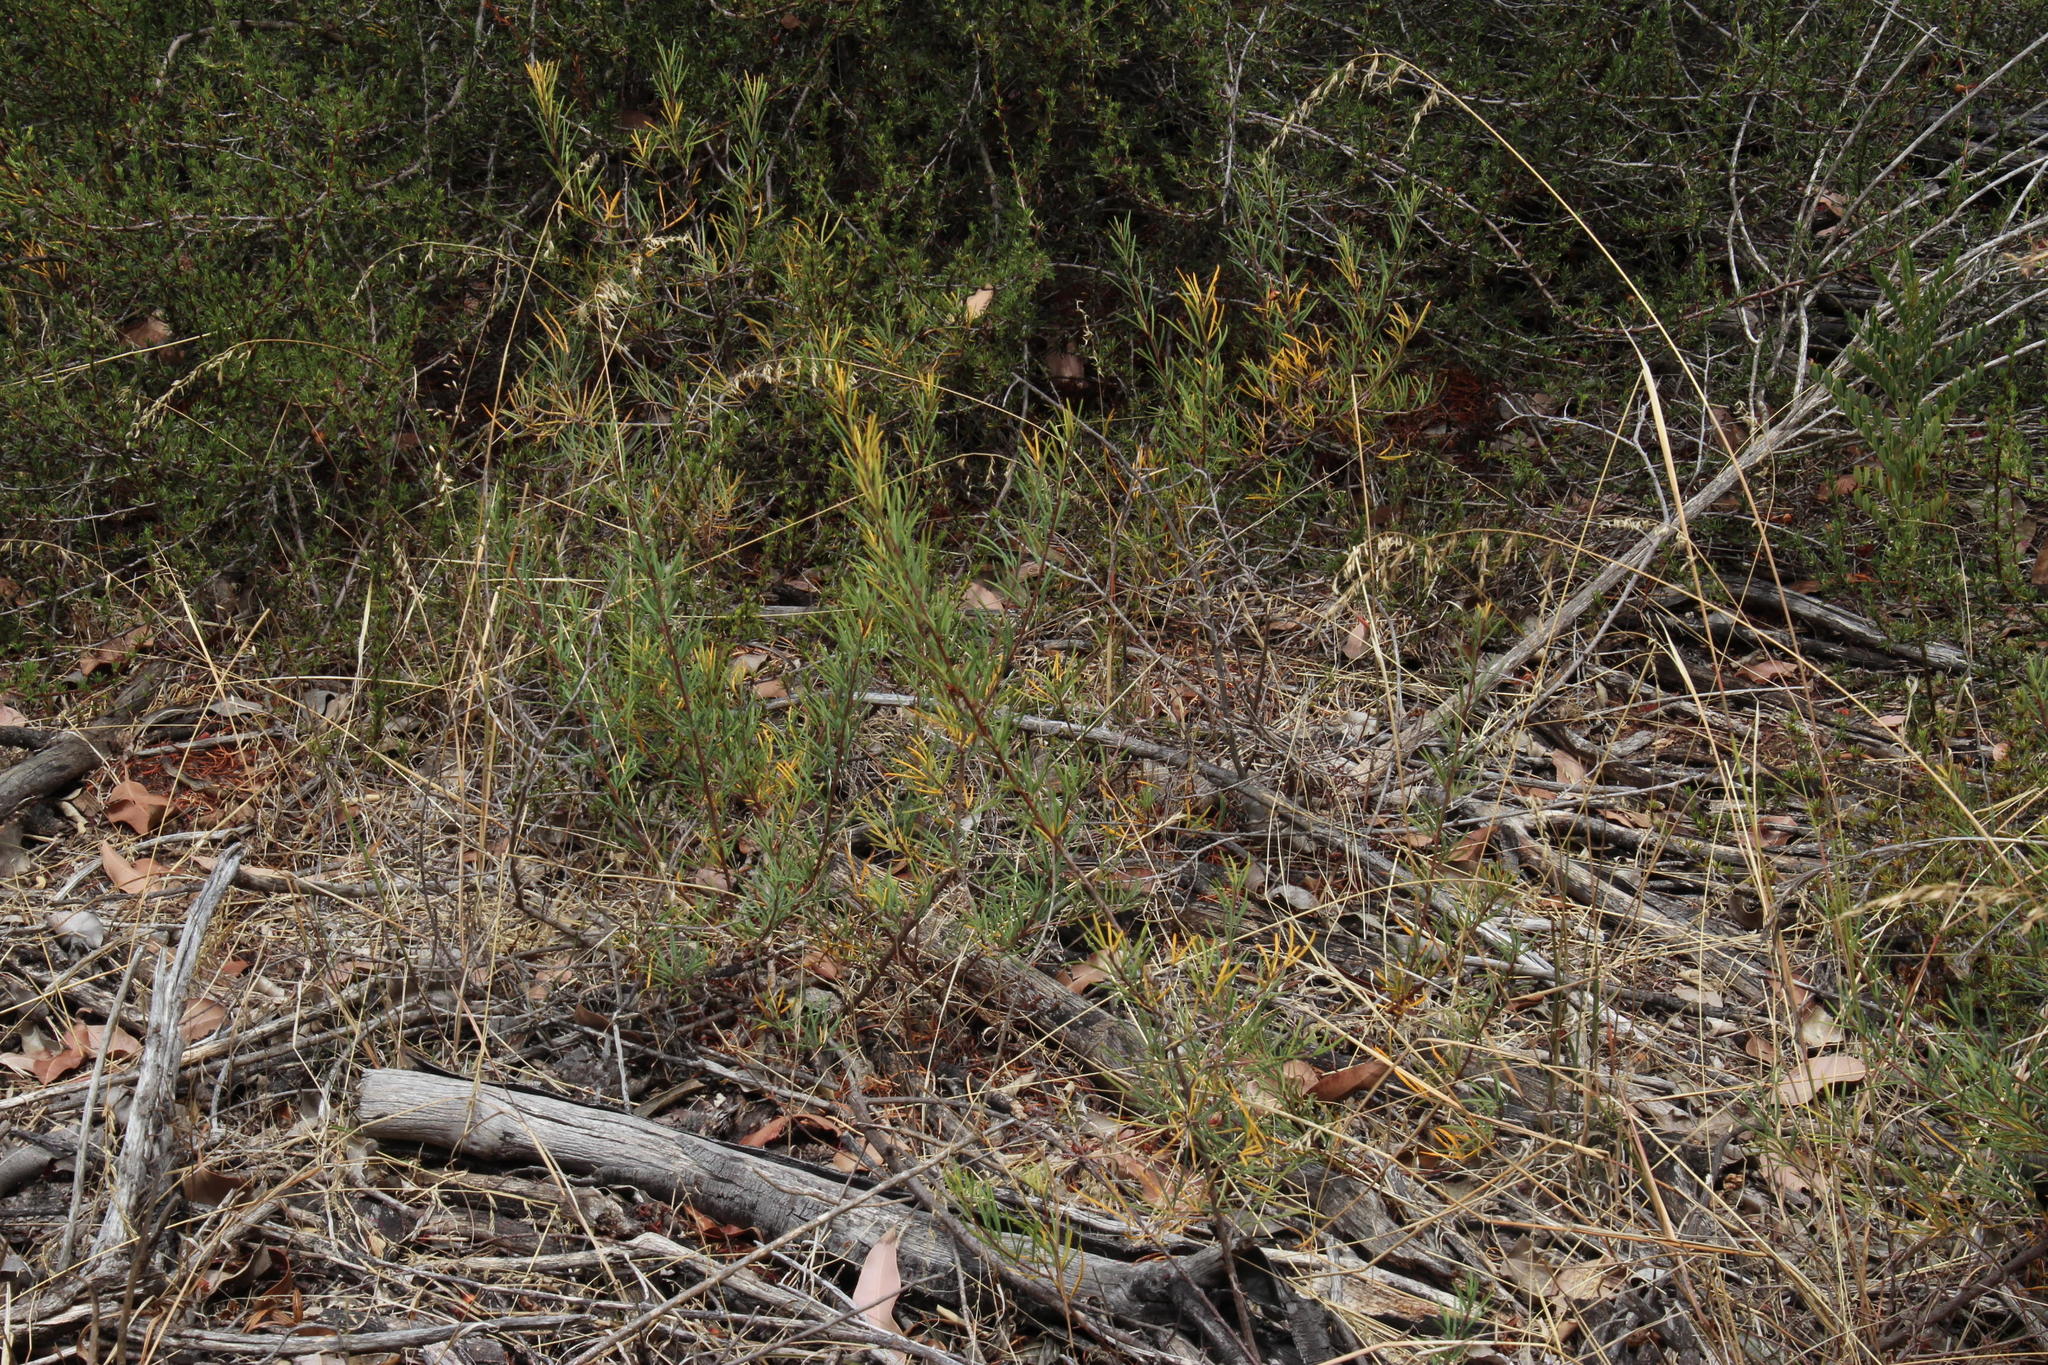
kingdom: Plantae
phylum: Tracheophyta
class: Magnoliopsida
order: Sapindales
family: Anacardiaceae
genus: Searsia
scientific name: Searsia rosmarinifolia
